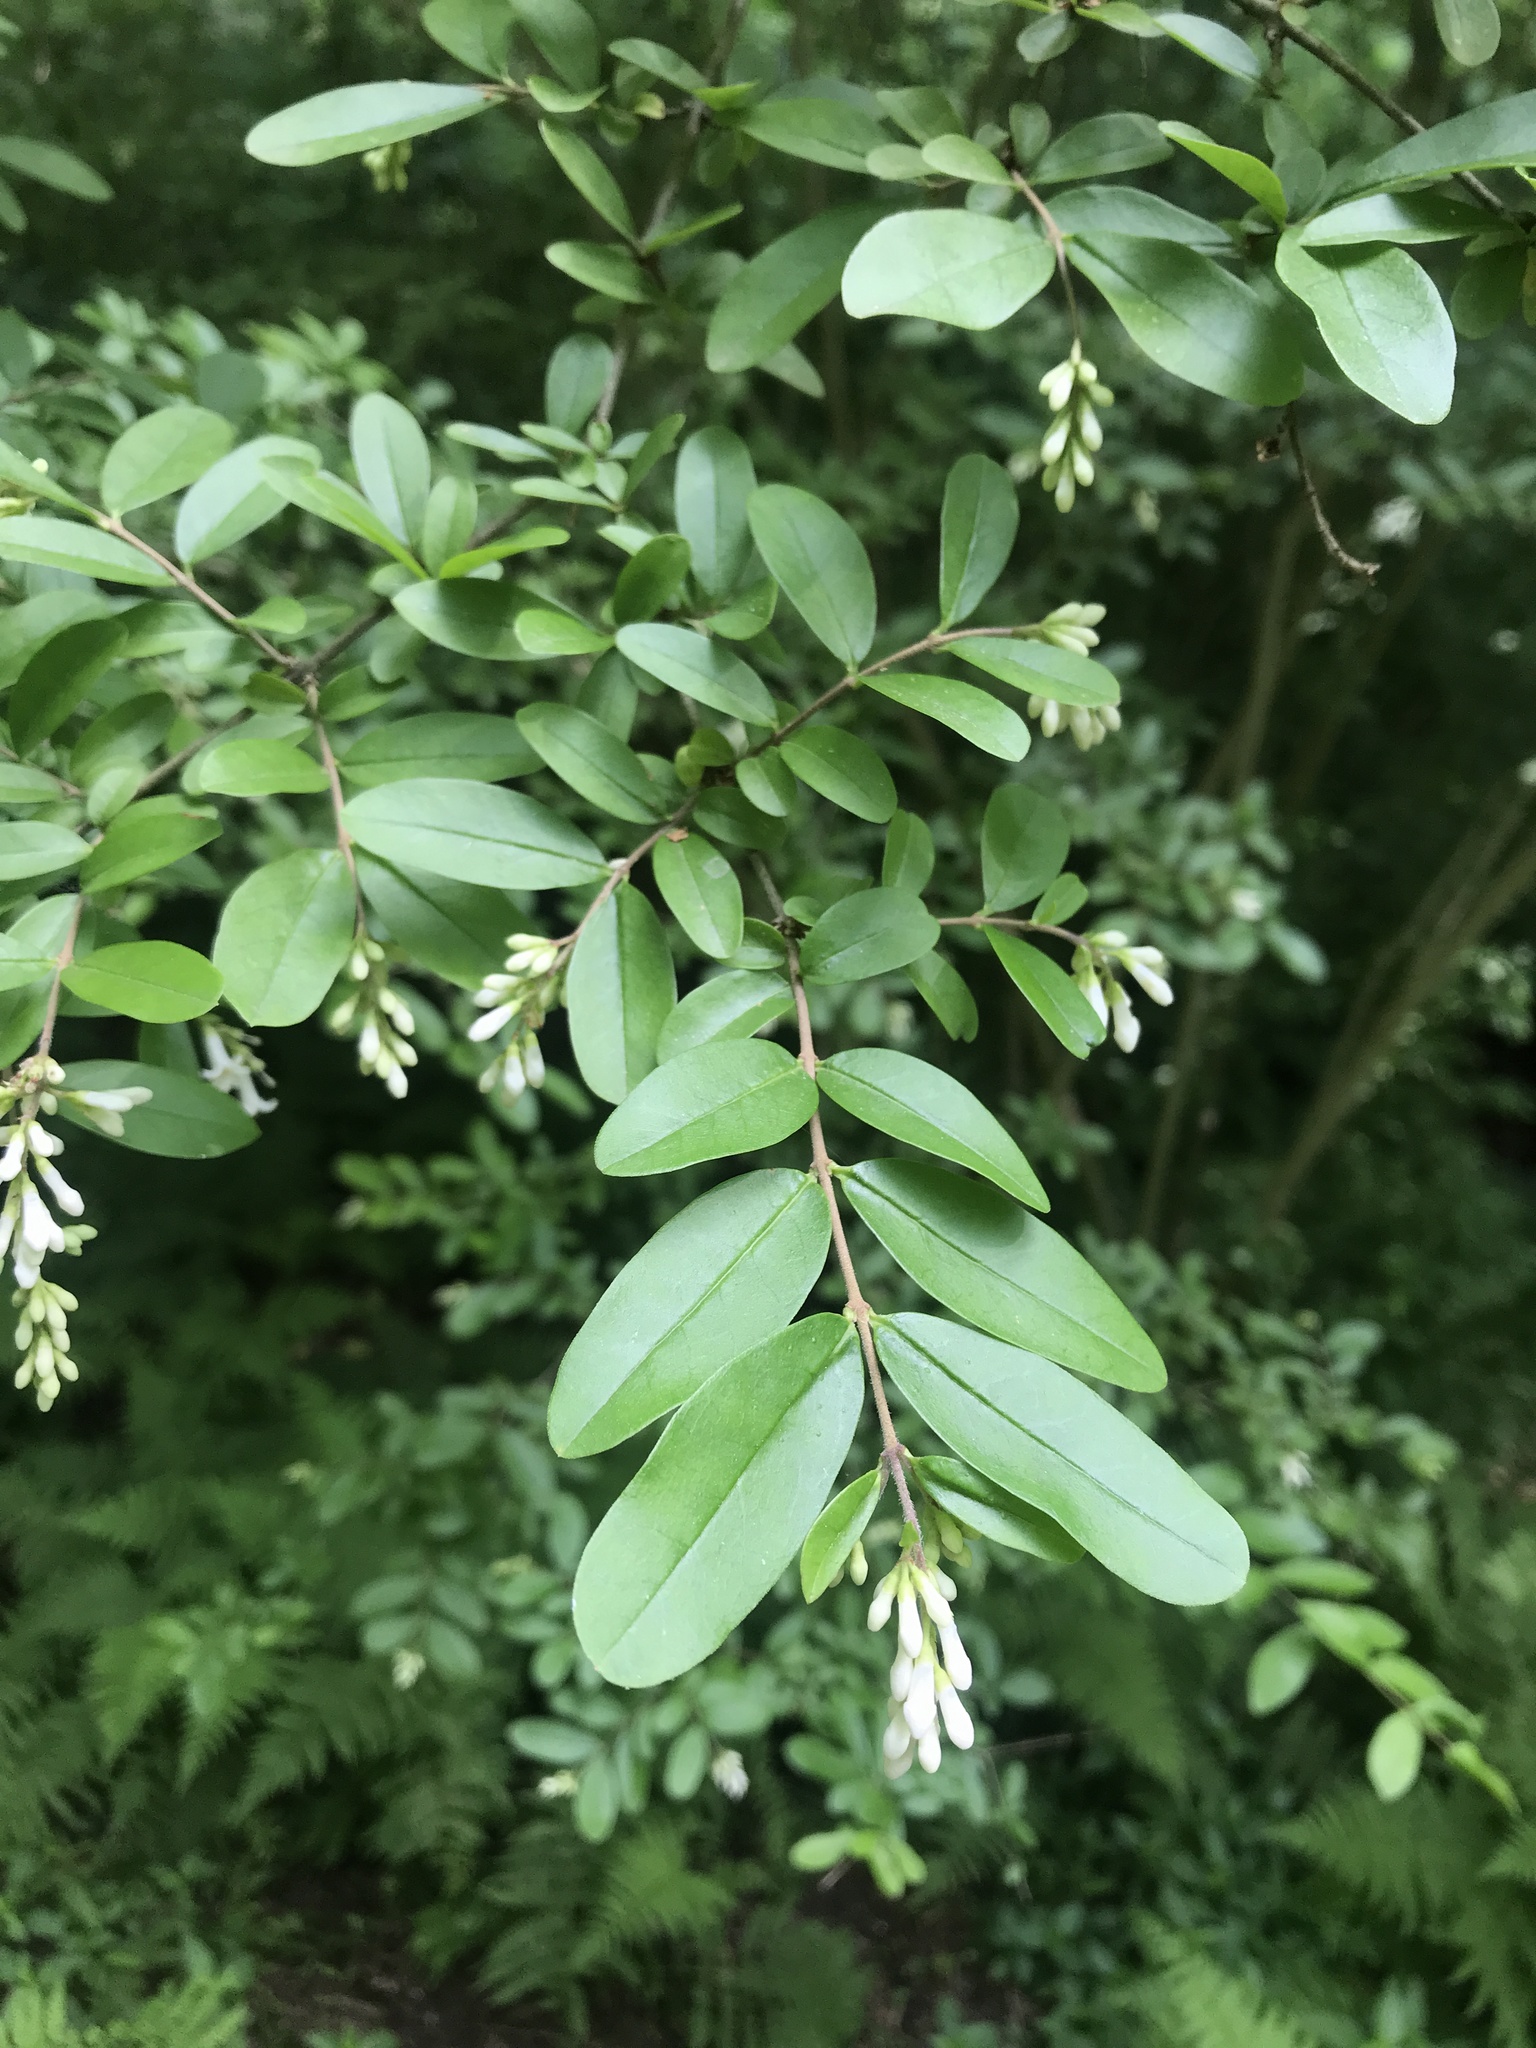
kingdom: Plantae
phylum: Tracheophyta
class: Magnoliopsida
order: Lamiales
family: Oleaceae
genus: Ligustrum
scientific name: Ligustrum obtusifolium
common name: Border privet
